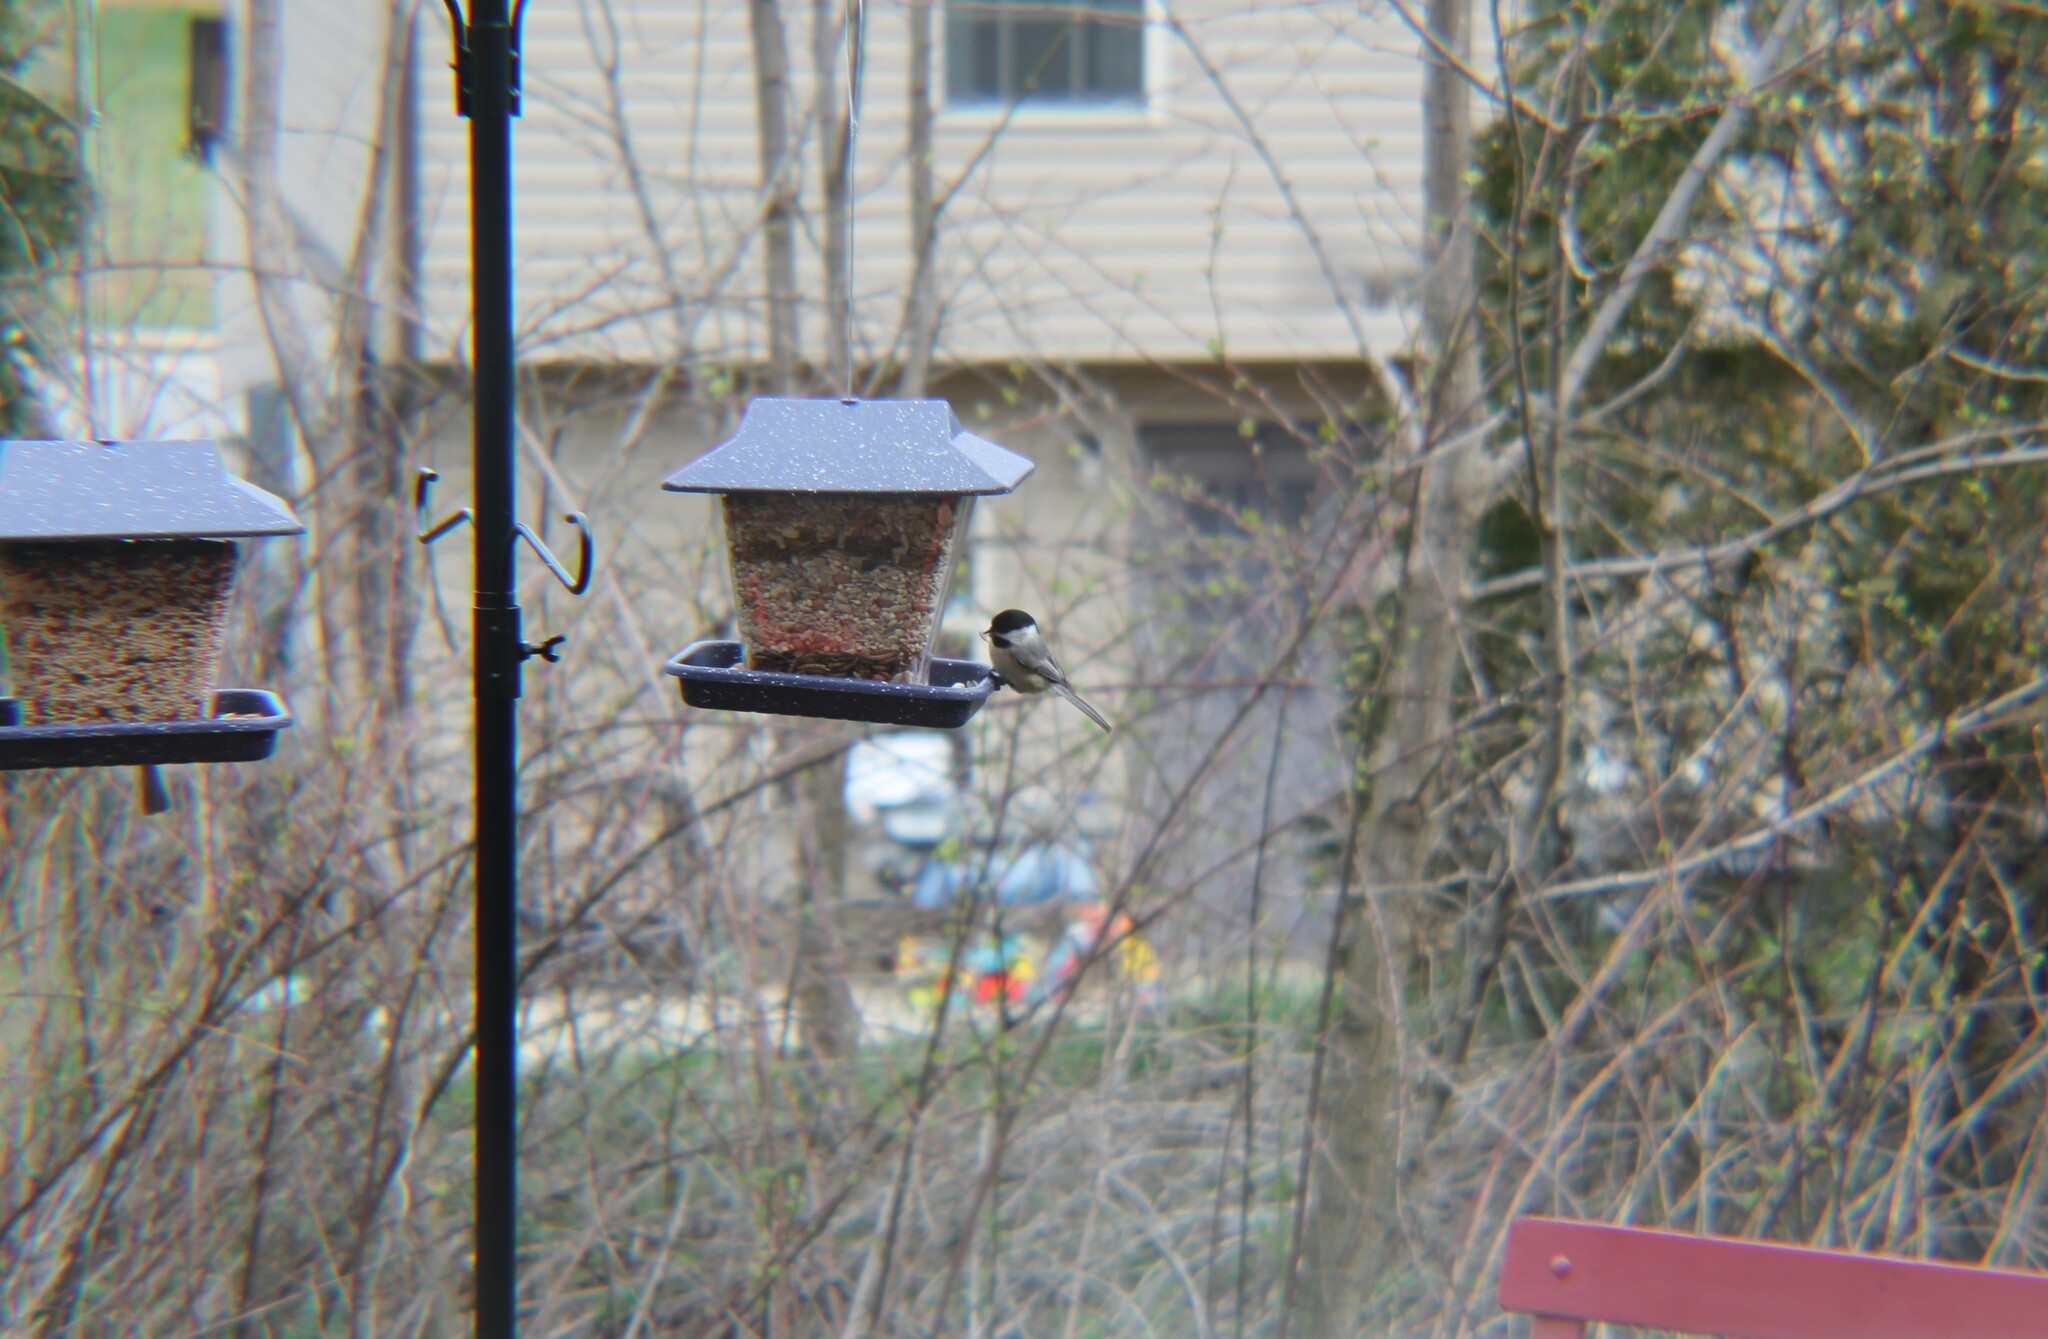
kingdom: Animalia
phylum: Chordata
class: Aves
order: Passeriformes
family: Paridae
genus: Poecile
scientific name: Poecile carolinensis
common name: Carolina chickadee
